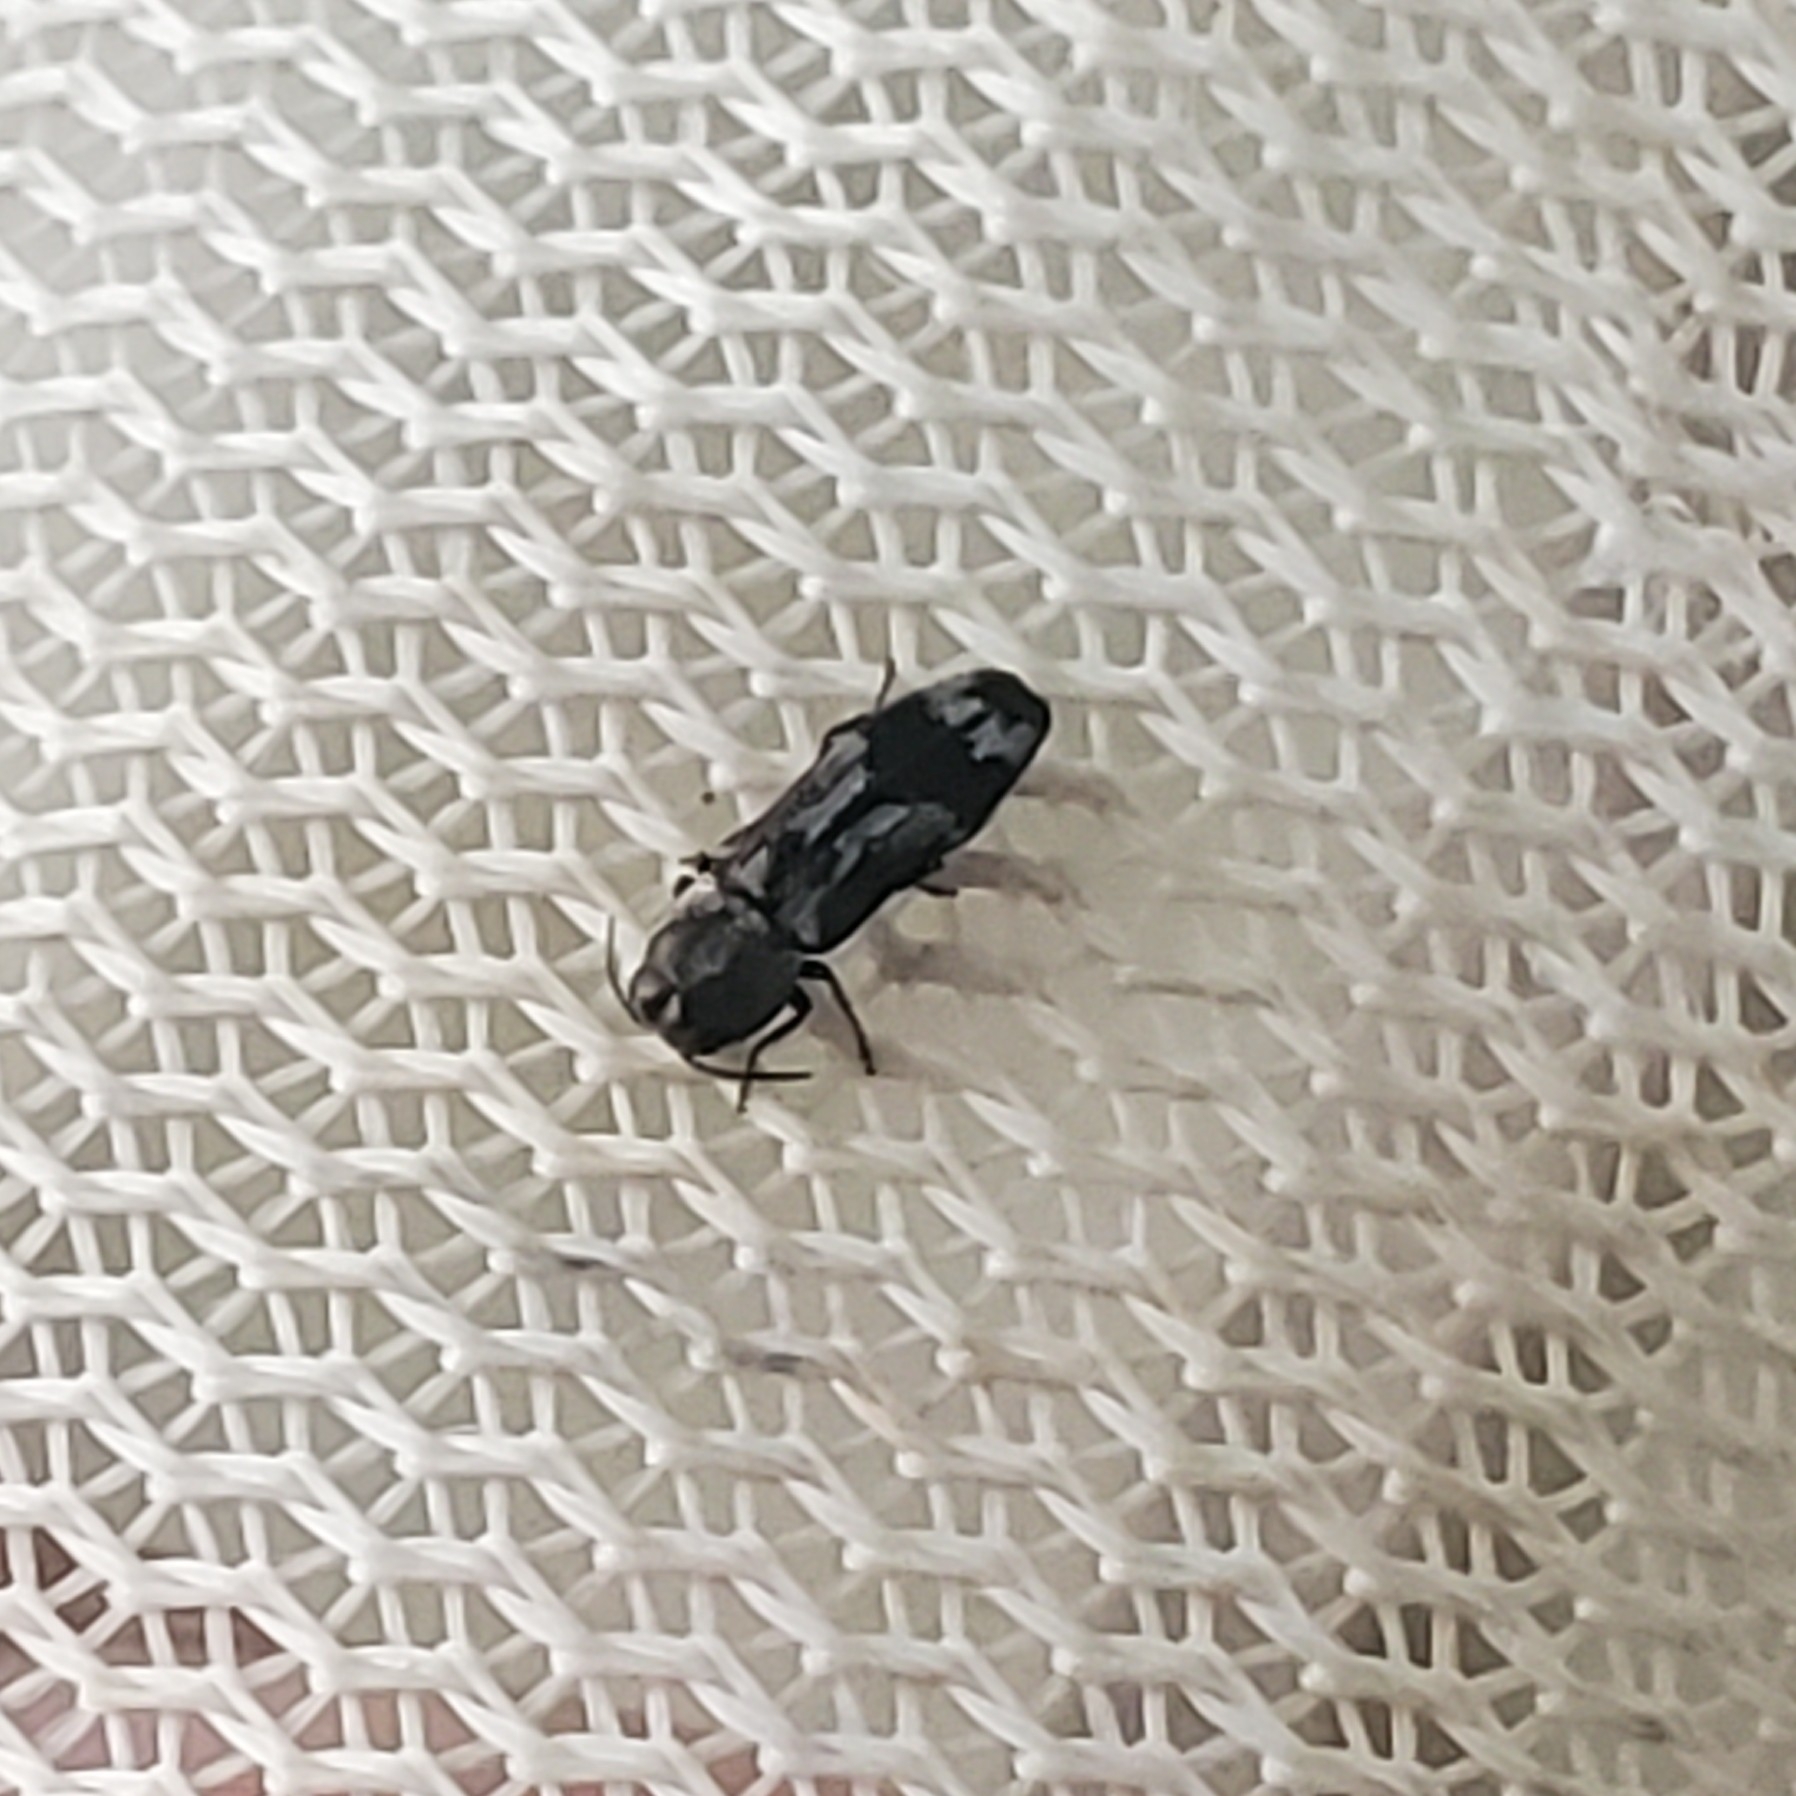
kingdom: Animalia
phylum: Arthropoda
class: Insecta
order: Coleoptera
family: Buprestidae
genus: Agrilus
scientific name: Agrilus subcinctus
